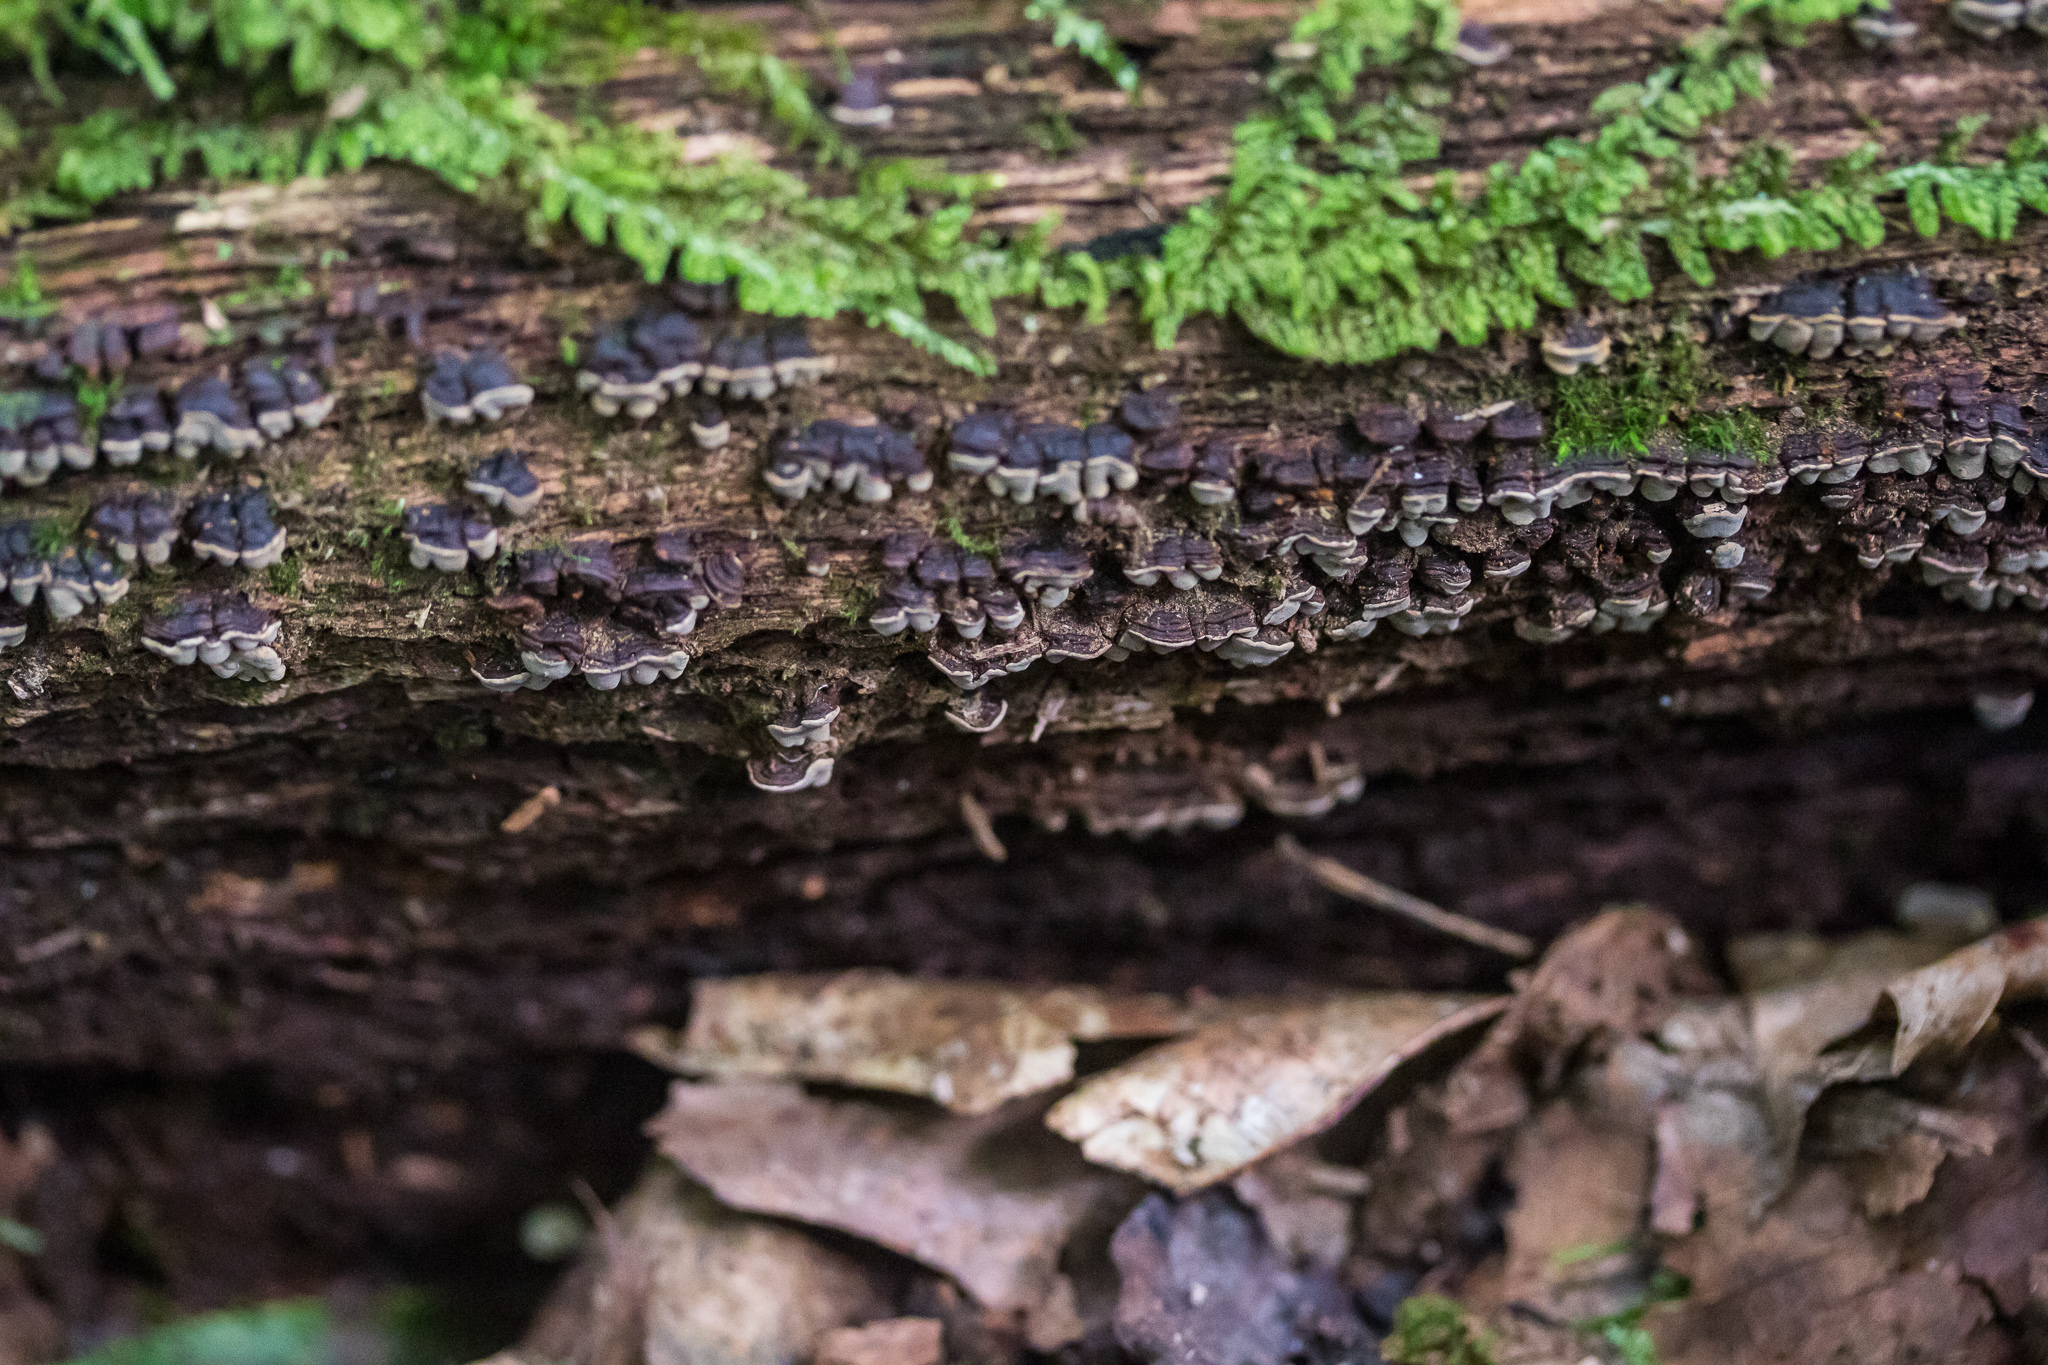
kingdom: Fungi
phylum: Basidiomycota
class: Agaricomycetes
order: Russulales
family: Stereaceae
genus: Xylobolus
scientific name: Xylobolus frustulatus
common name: Ceramic parchment
